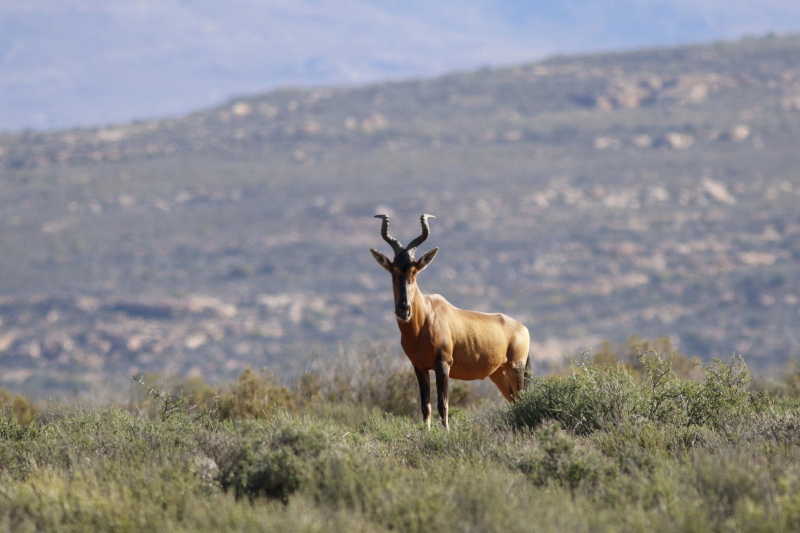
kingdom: Animalia
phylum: Chordata
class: Mammalia
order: Artiodactyla
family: Bovidae
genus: Alcelaphus
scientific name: Alcelaphus caama
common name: Red hartebeest
